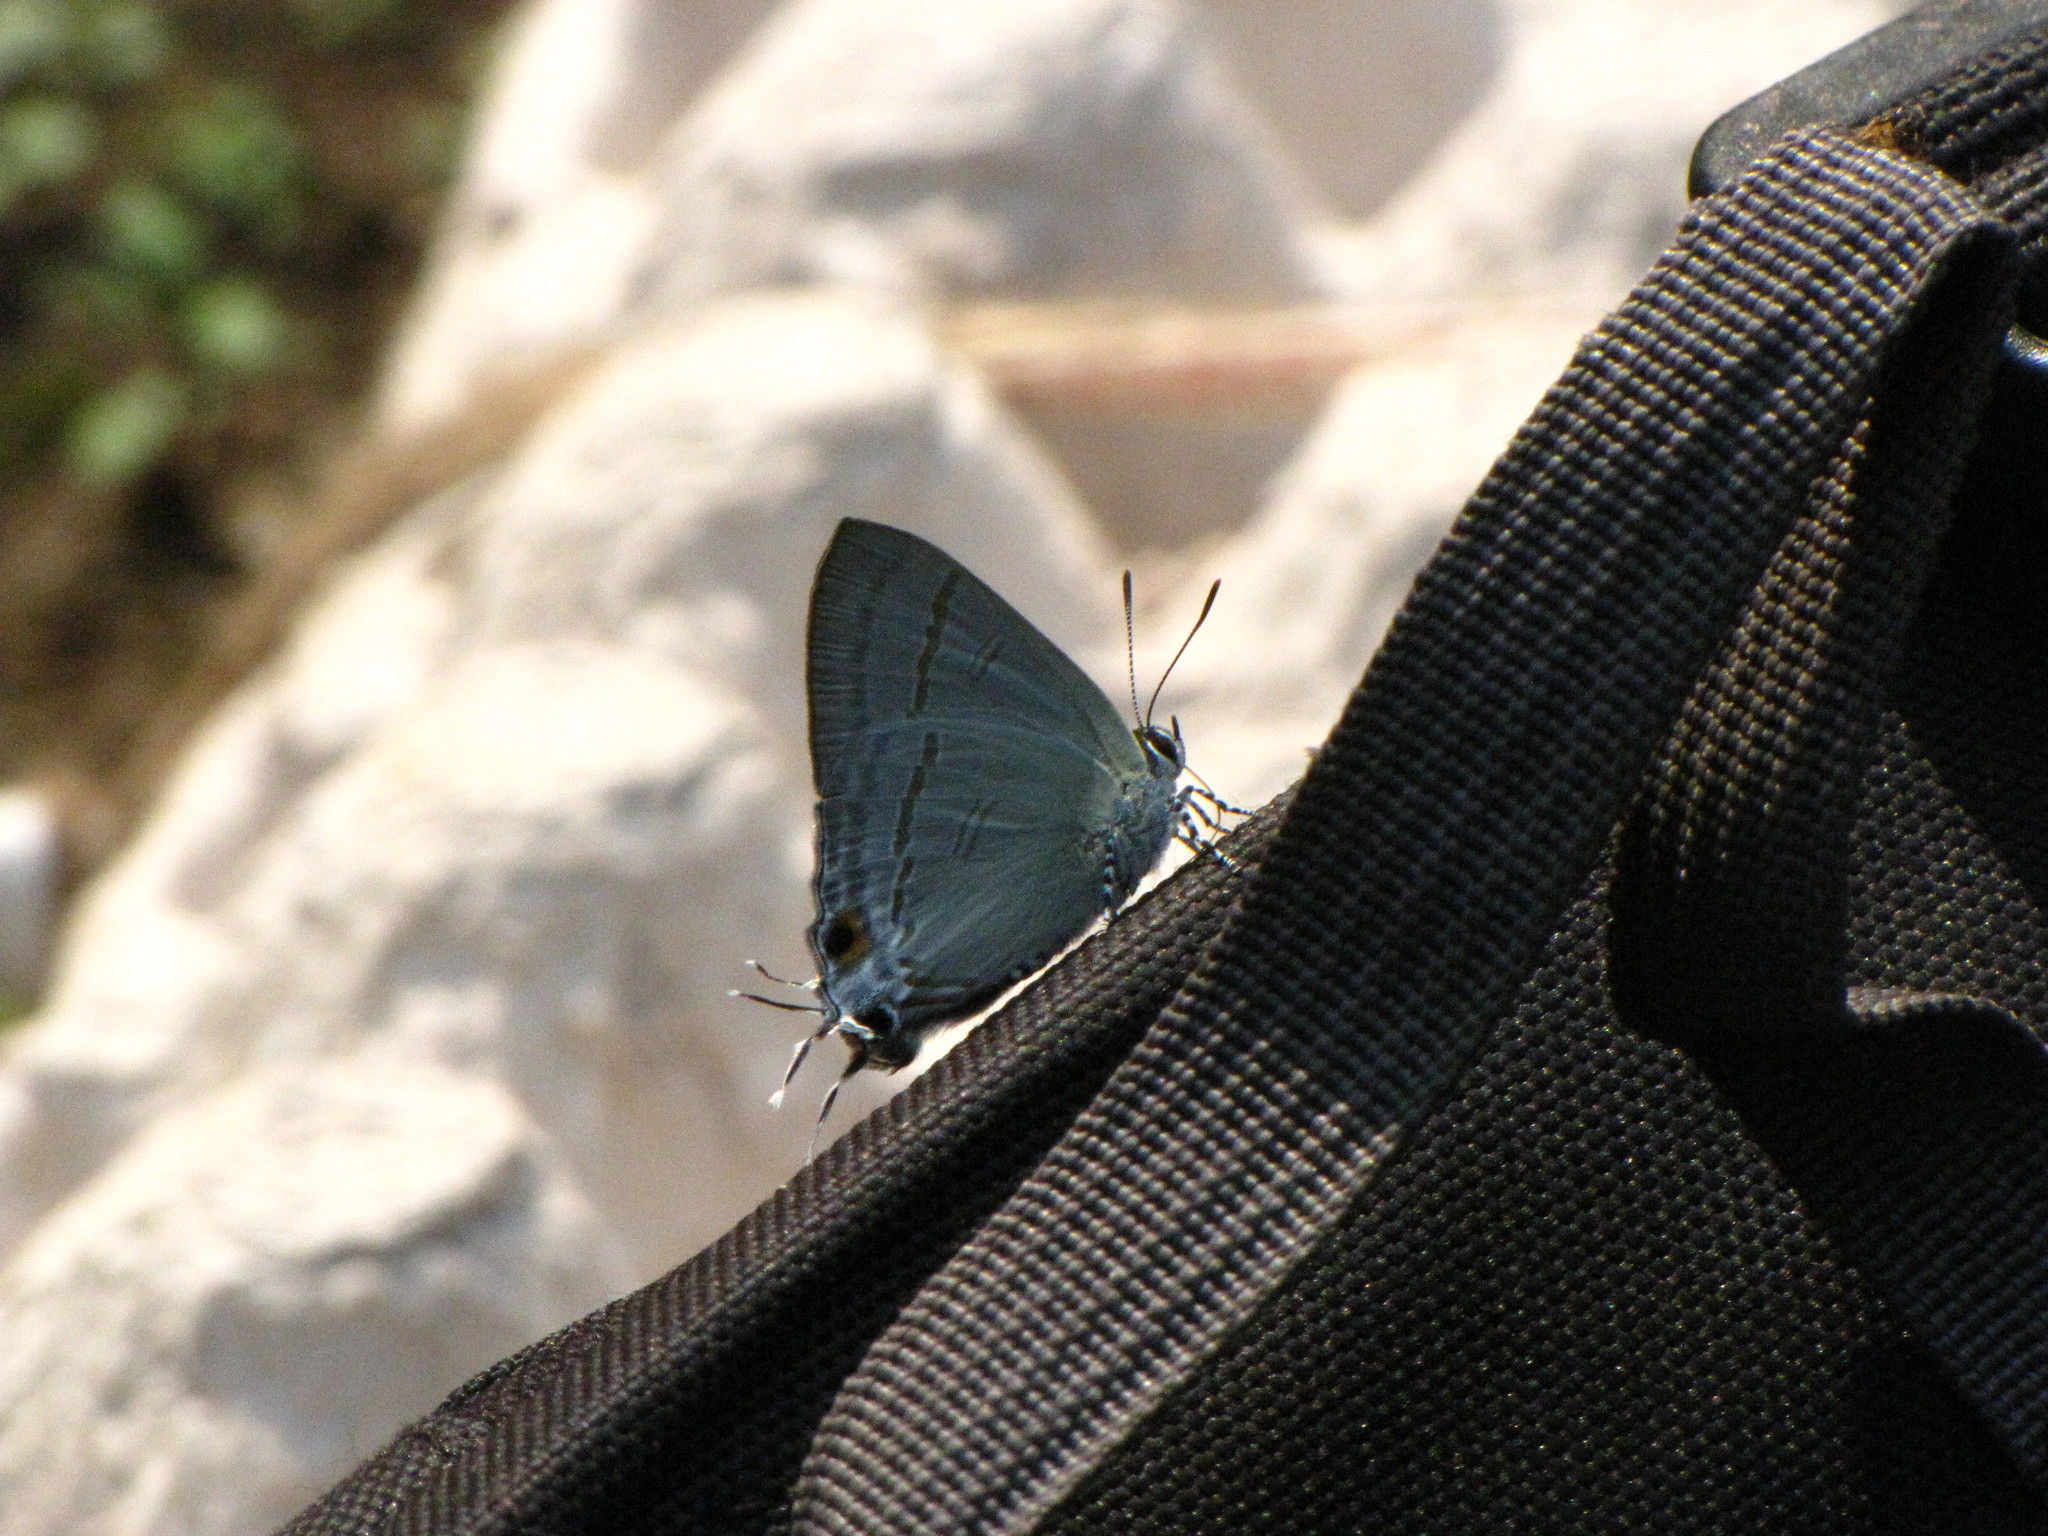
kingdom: Animalia
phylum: Arthropoda
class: Insecta
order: Lepidoptera
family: Lycaenidae
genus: Hypolycaena
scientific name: Hypolycaena erylus
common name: Common tit
